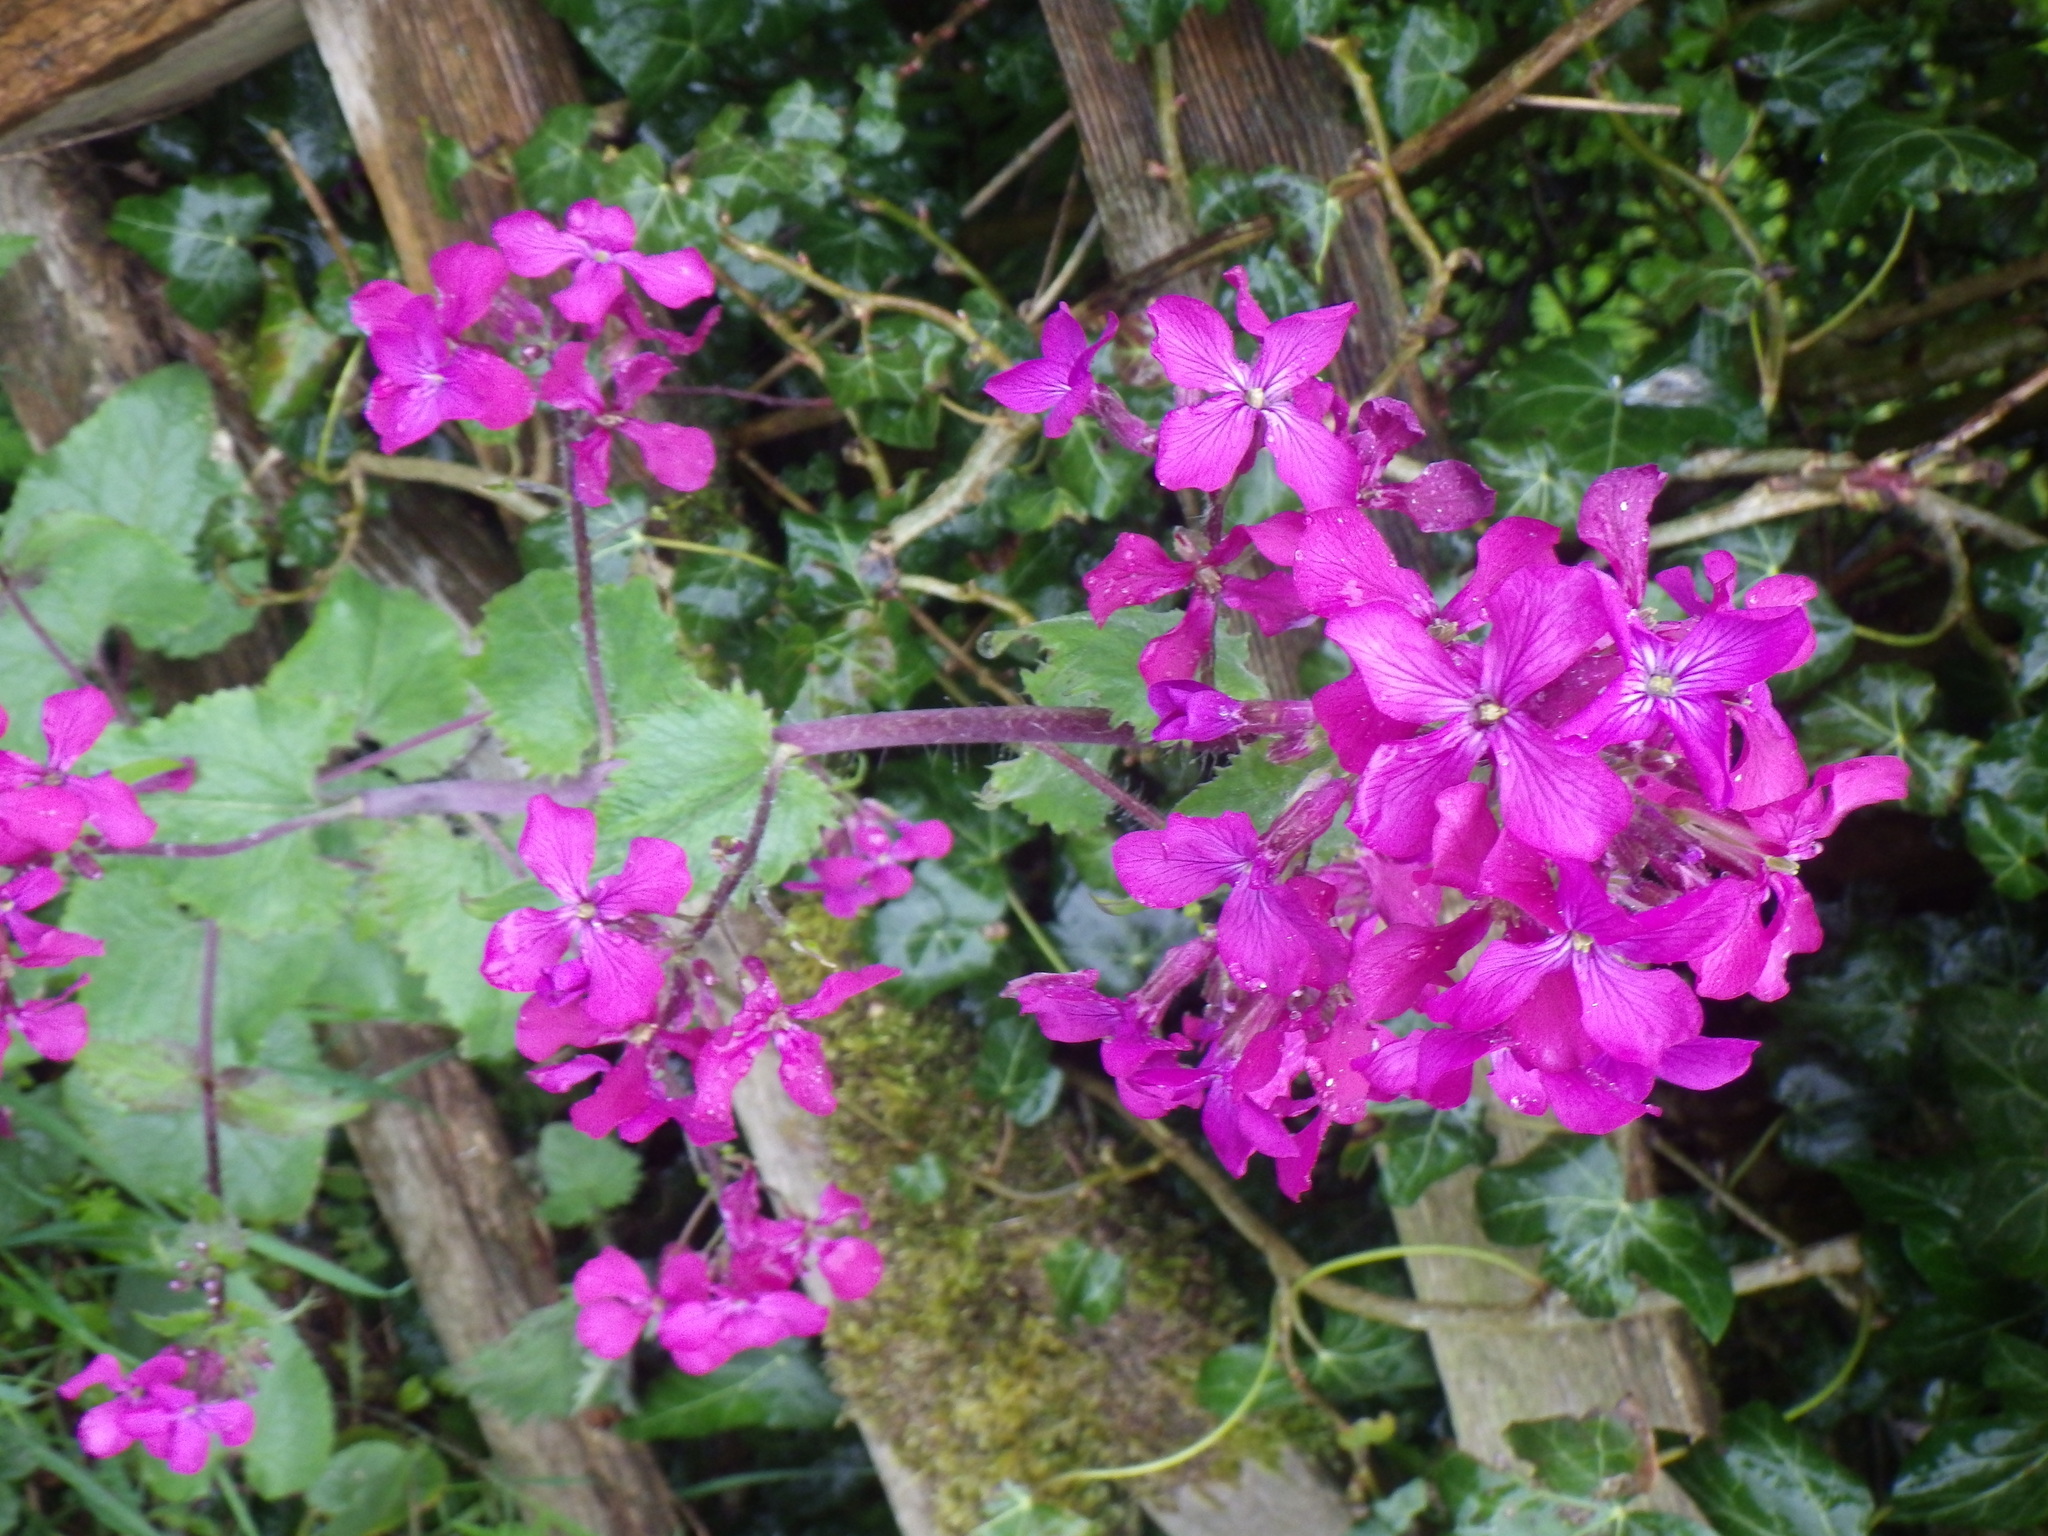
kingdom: Plantae
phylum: Tracheophyta
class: Magnoliopsida
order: Brassicales
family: Brassicaceae
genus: Lunaria
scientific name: Lunaria annua
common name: Honesty
